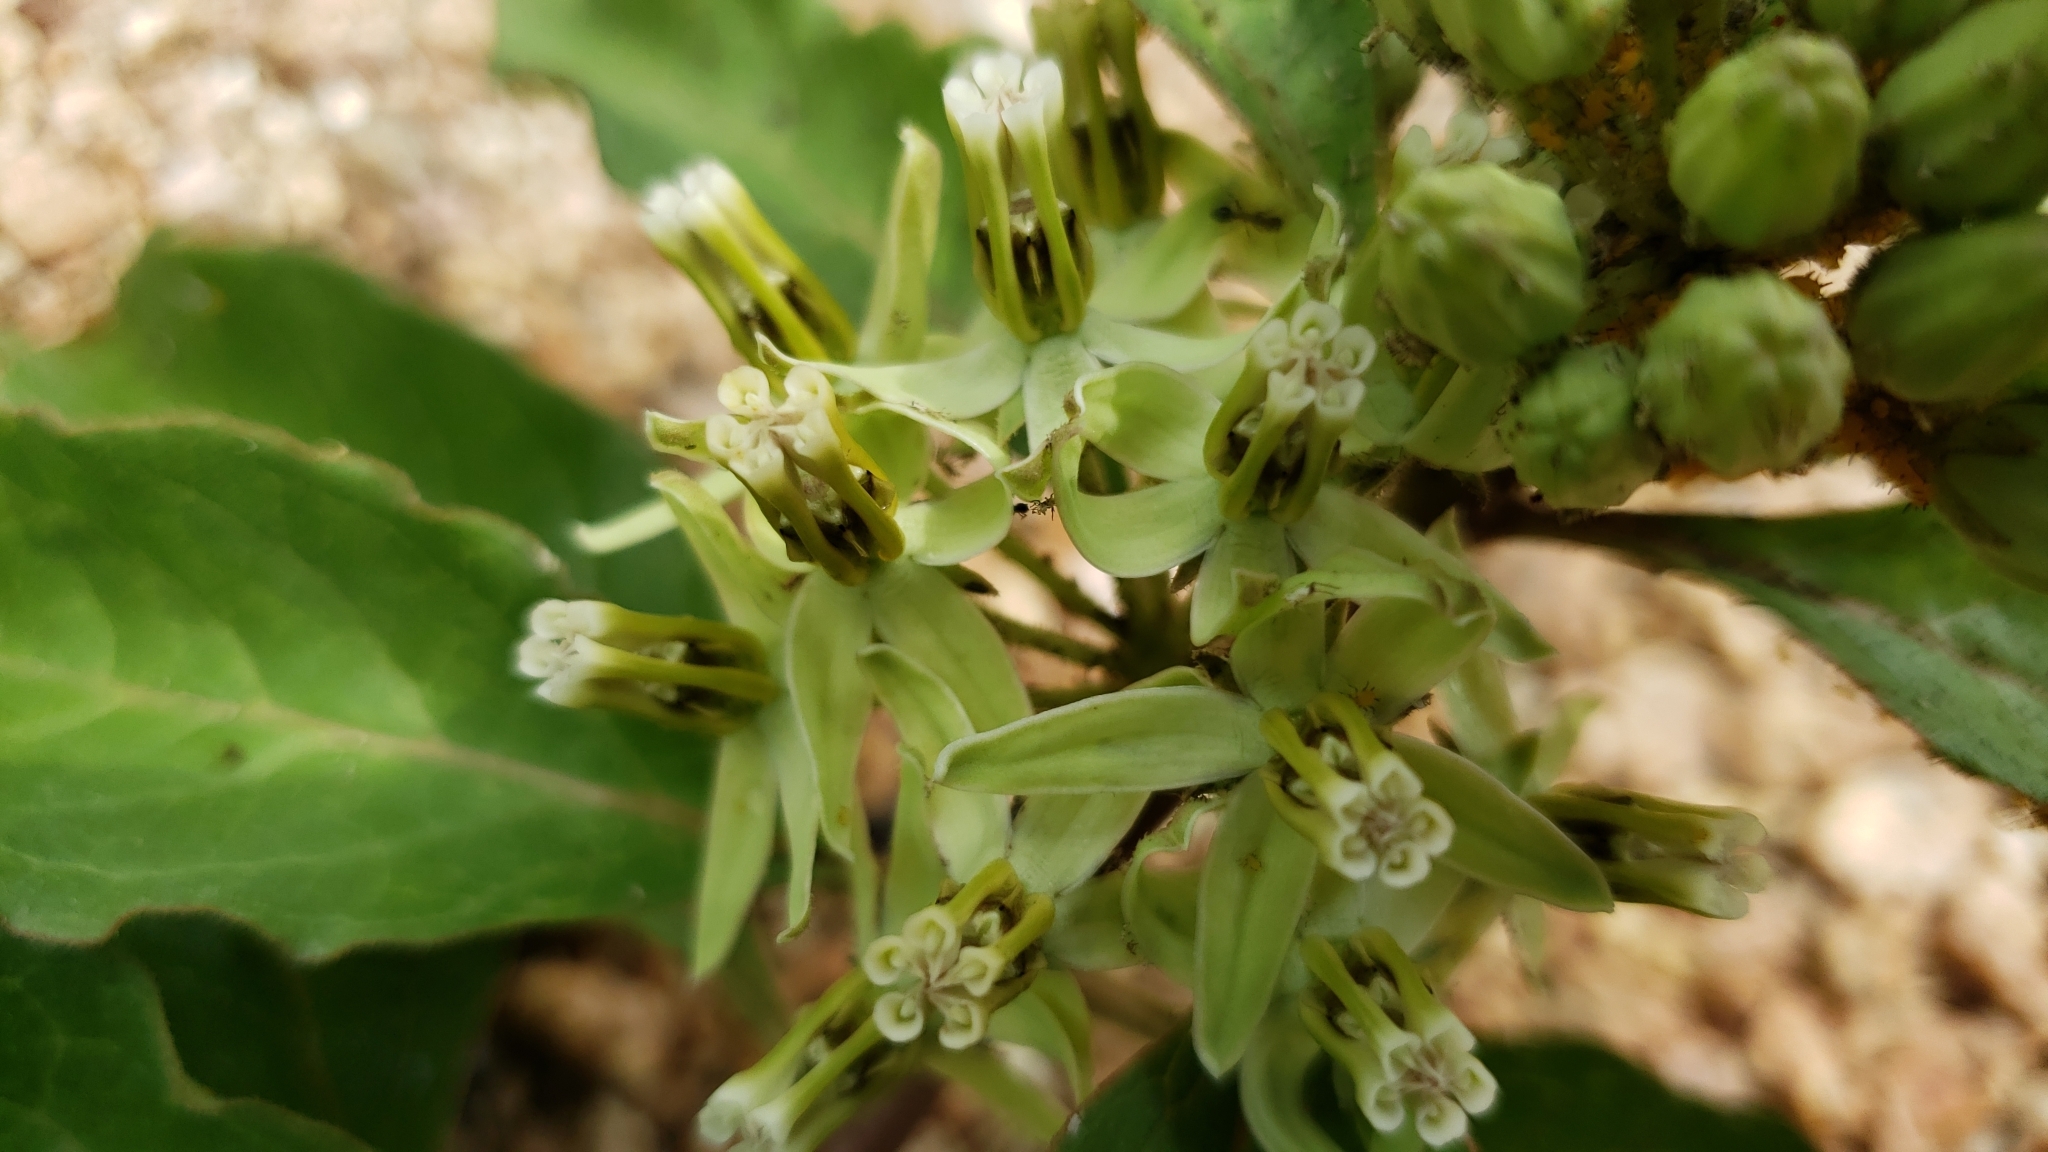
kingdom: Plantae
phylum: Tracheophyta
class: Magnoliopsida
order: Gentianales
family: Apocynaceae
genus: Asclepias
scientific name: Asclepias oenotheroides
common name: Zizotes milkweed
